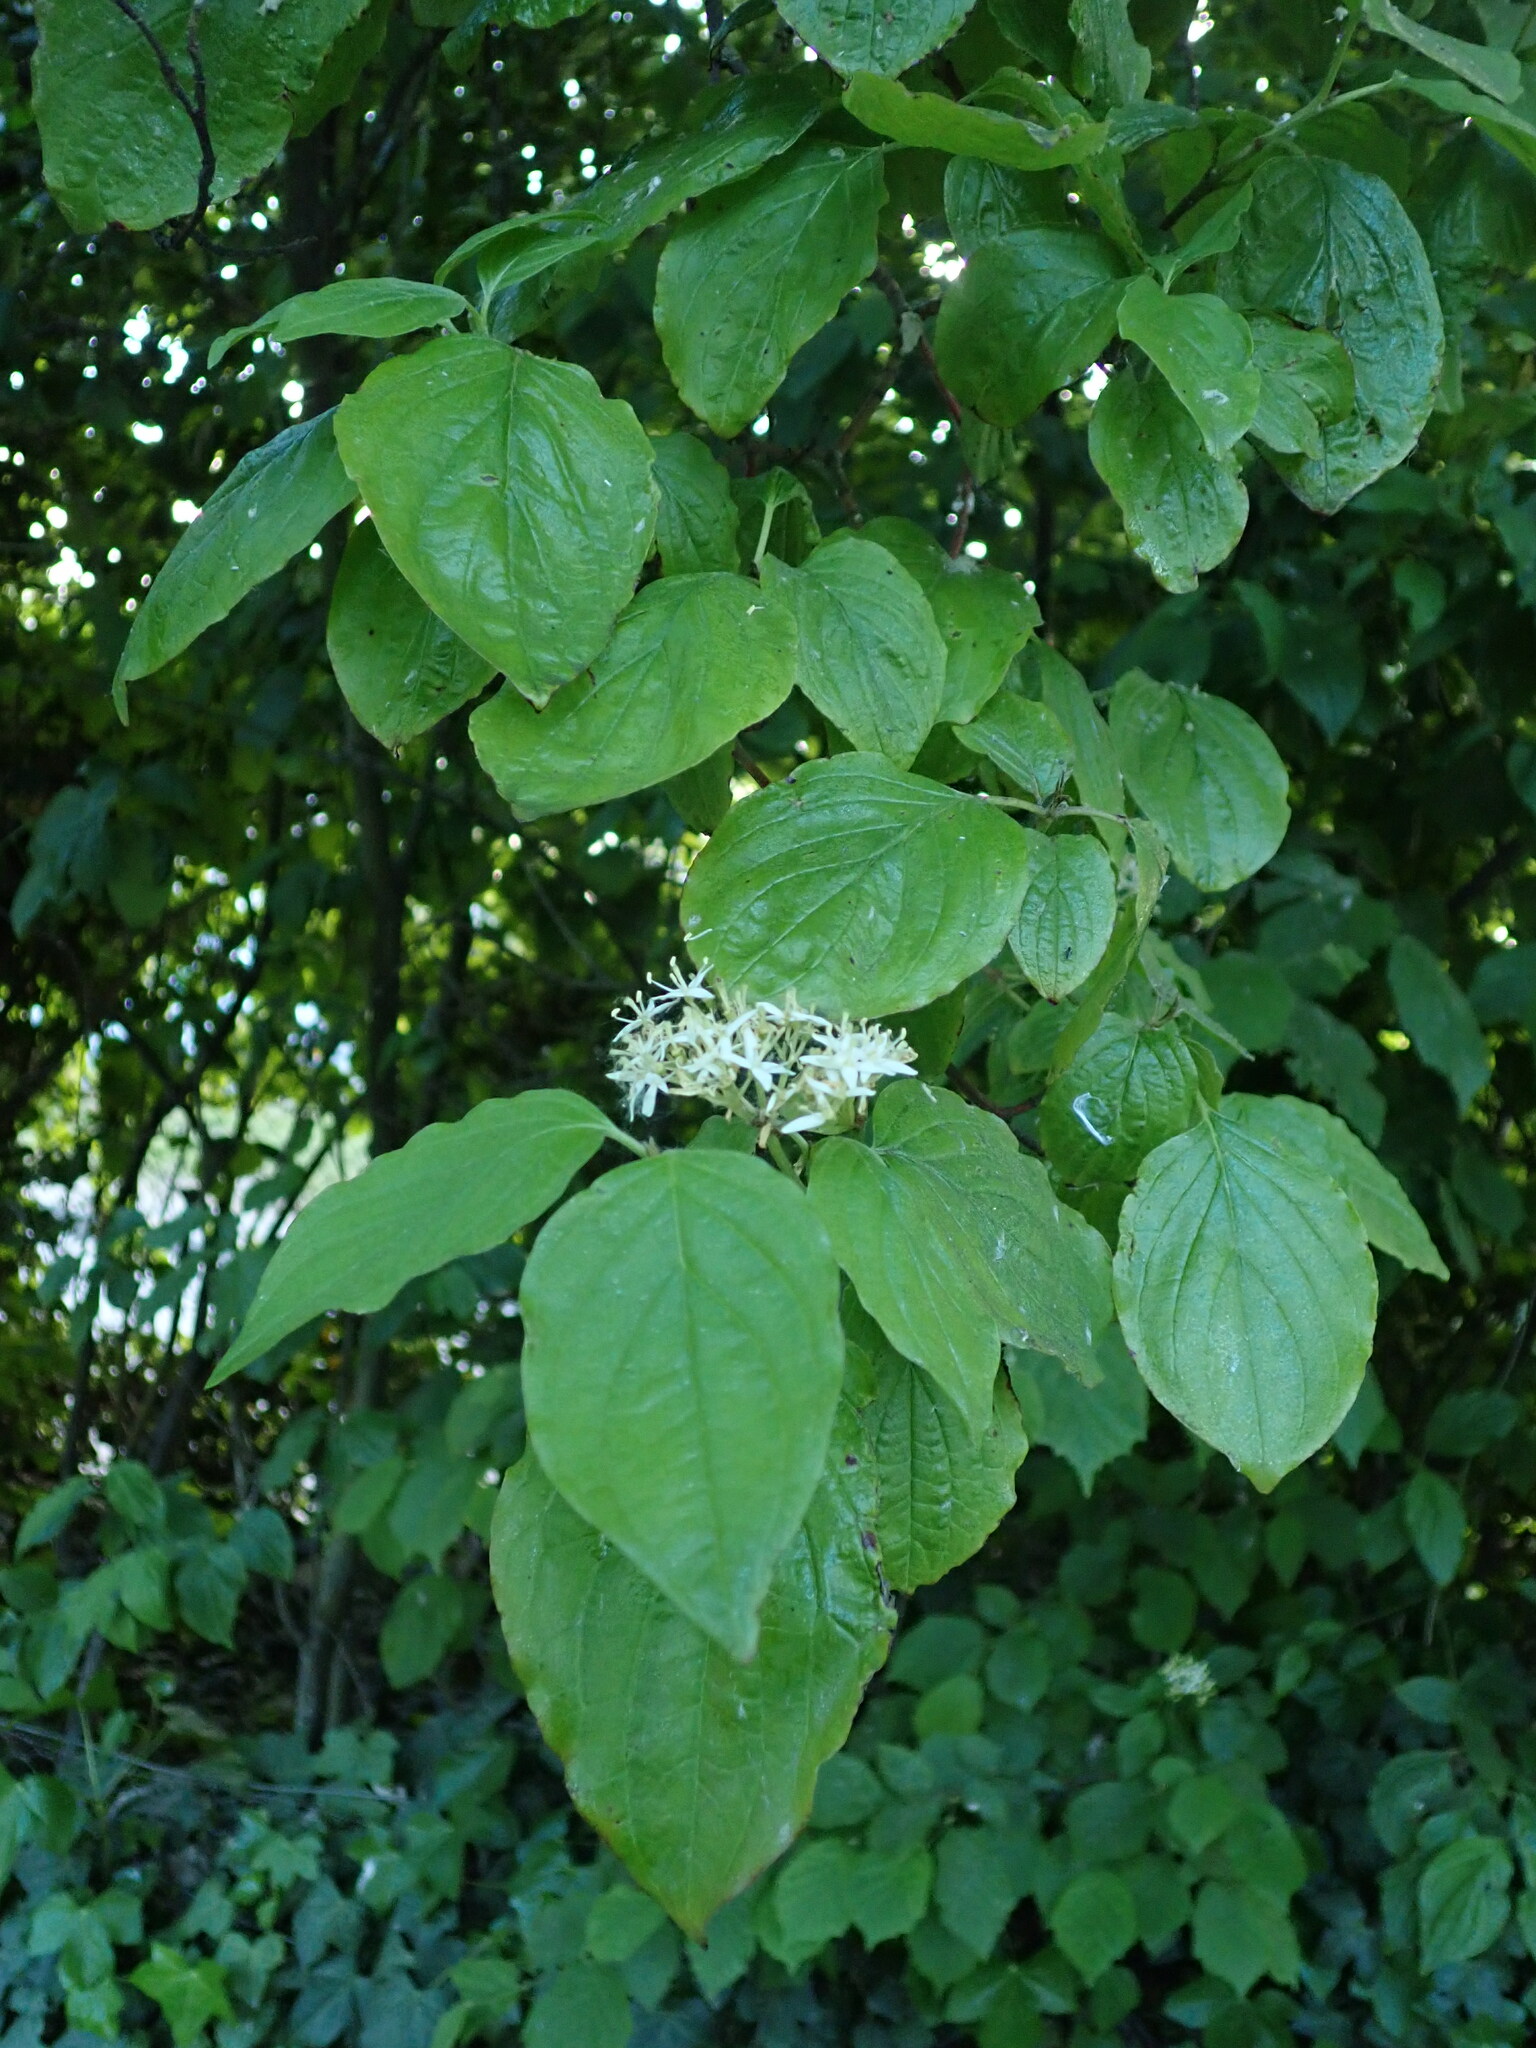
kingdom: Plantae
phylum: Tracheophyta
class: Magnoliopsida
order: Cornales
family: Cornaceae
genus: Cornus
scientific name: Cornus sanguinea
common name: Dogwood
